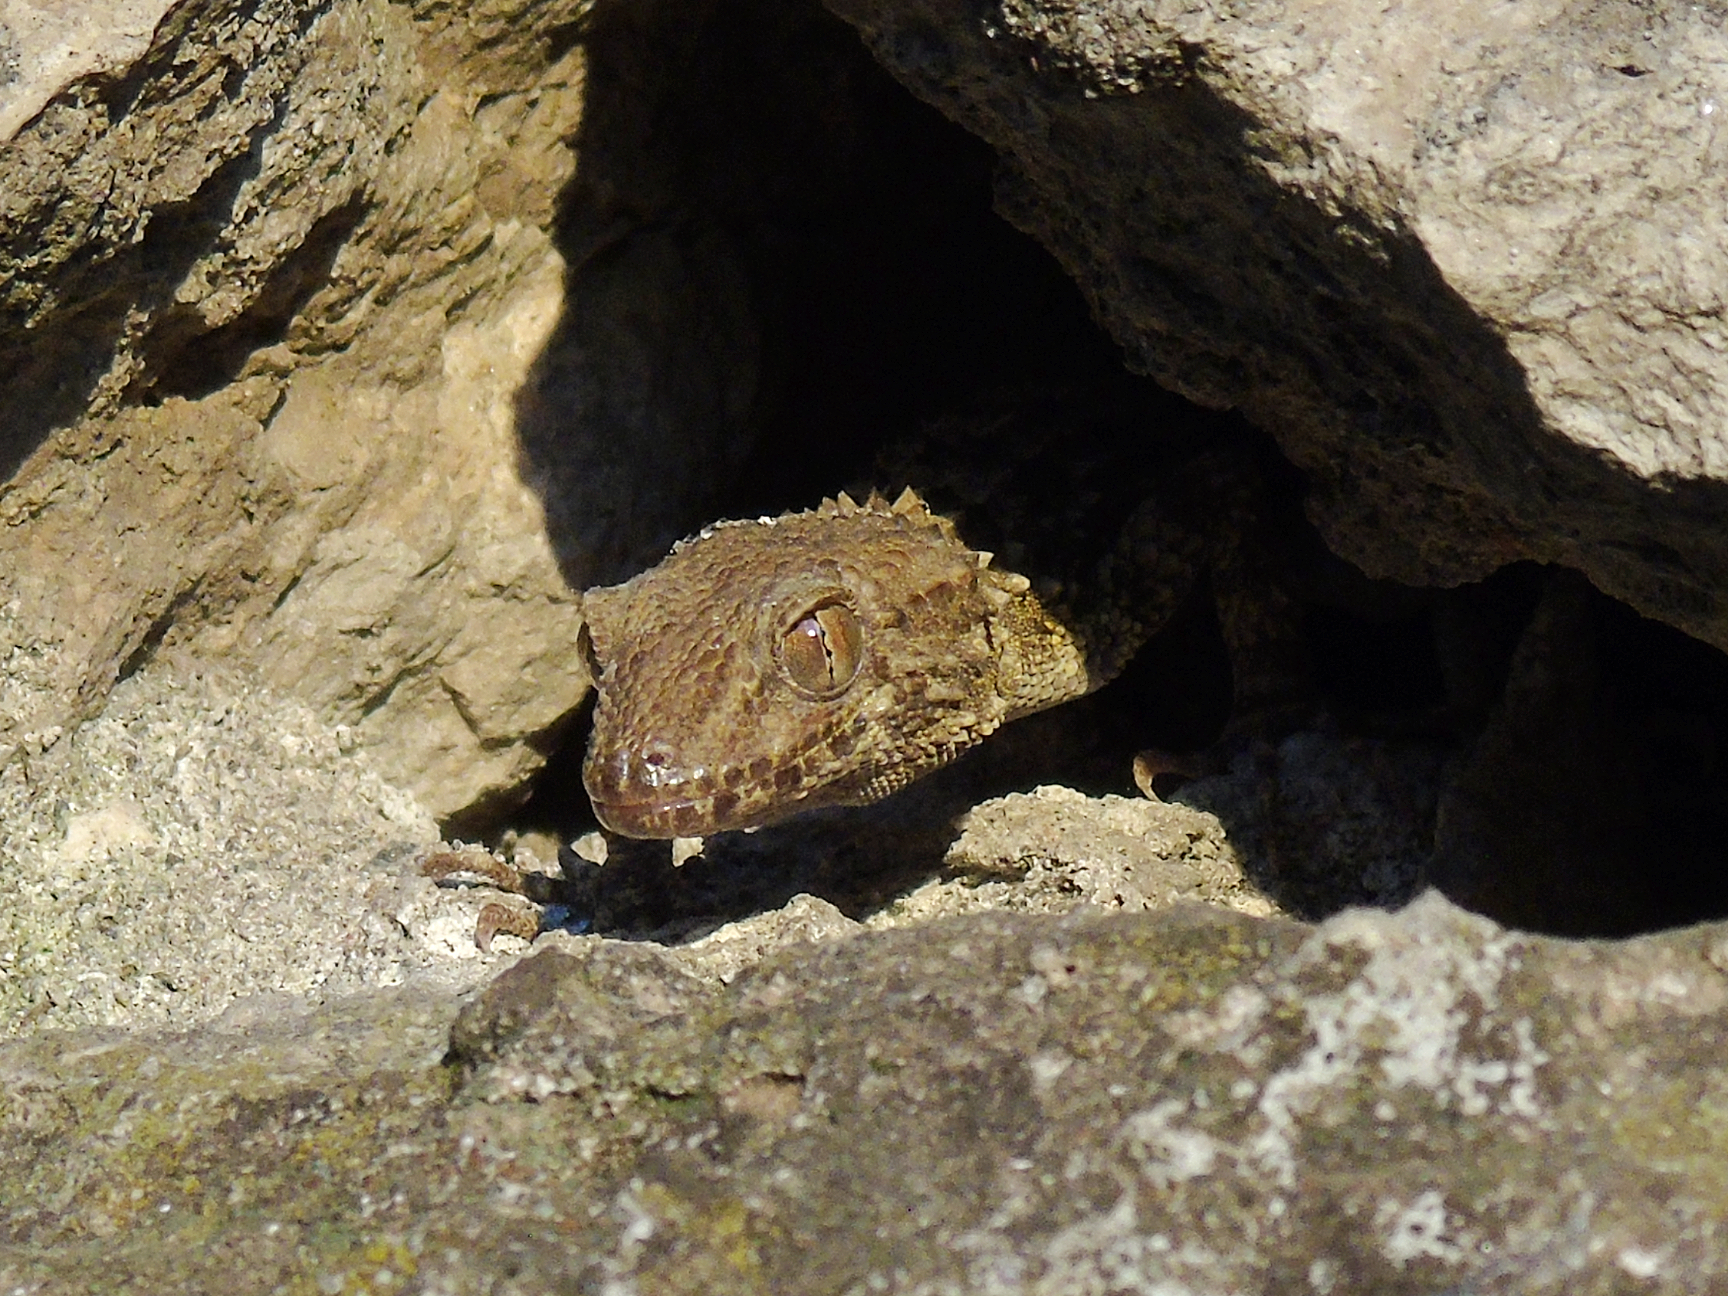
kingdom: Animalia
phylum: Chordata
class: Squamata
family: Gekkonidae
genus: Tenuidactylus
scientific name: Tenuidactylus caspius
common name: Caspian bent-toed gecko
